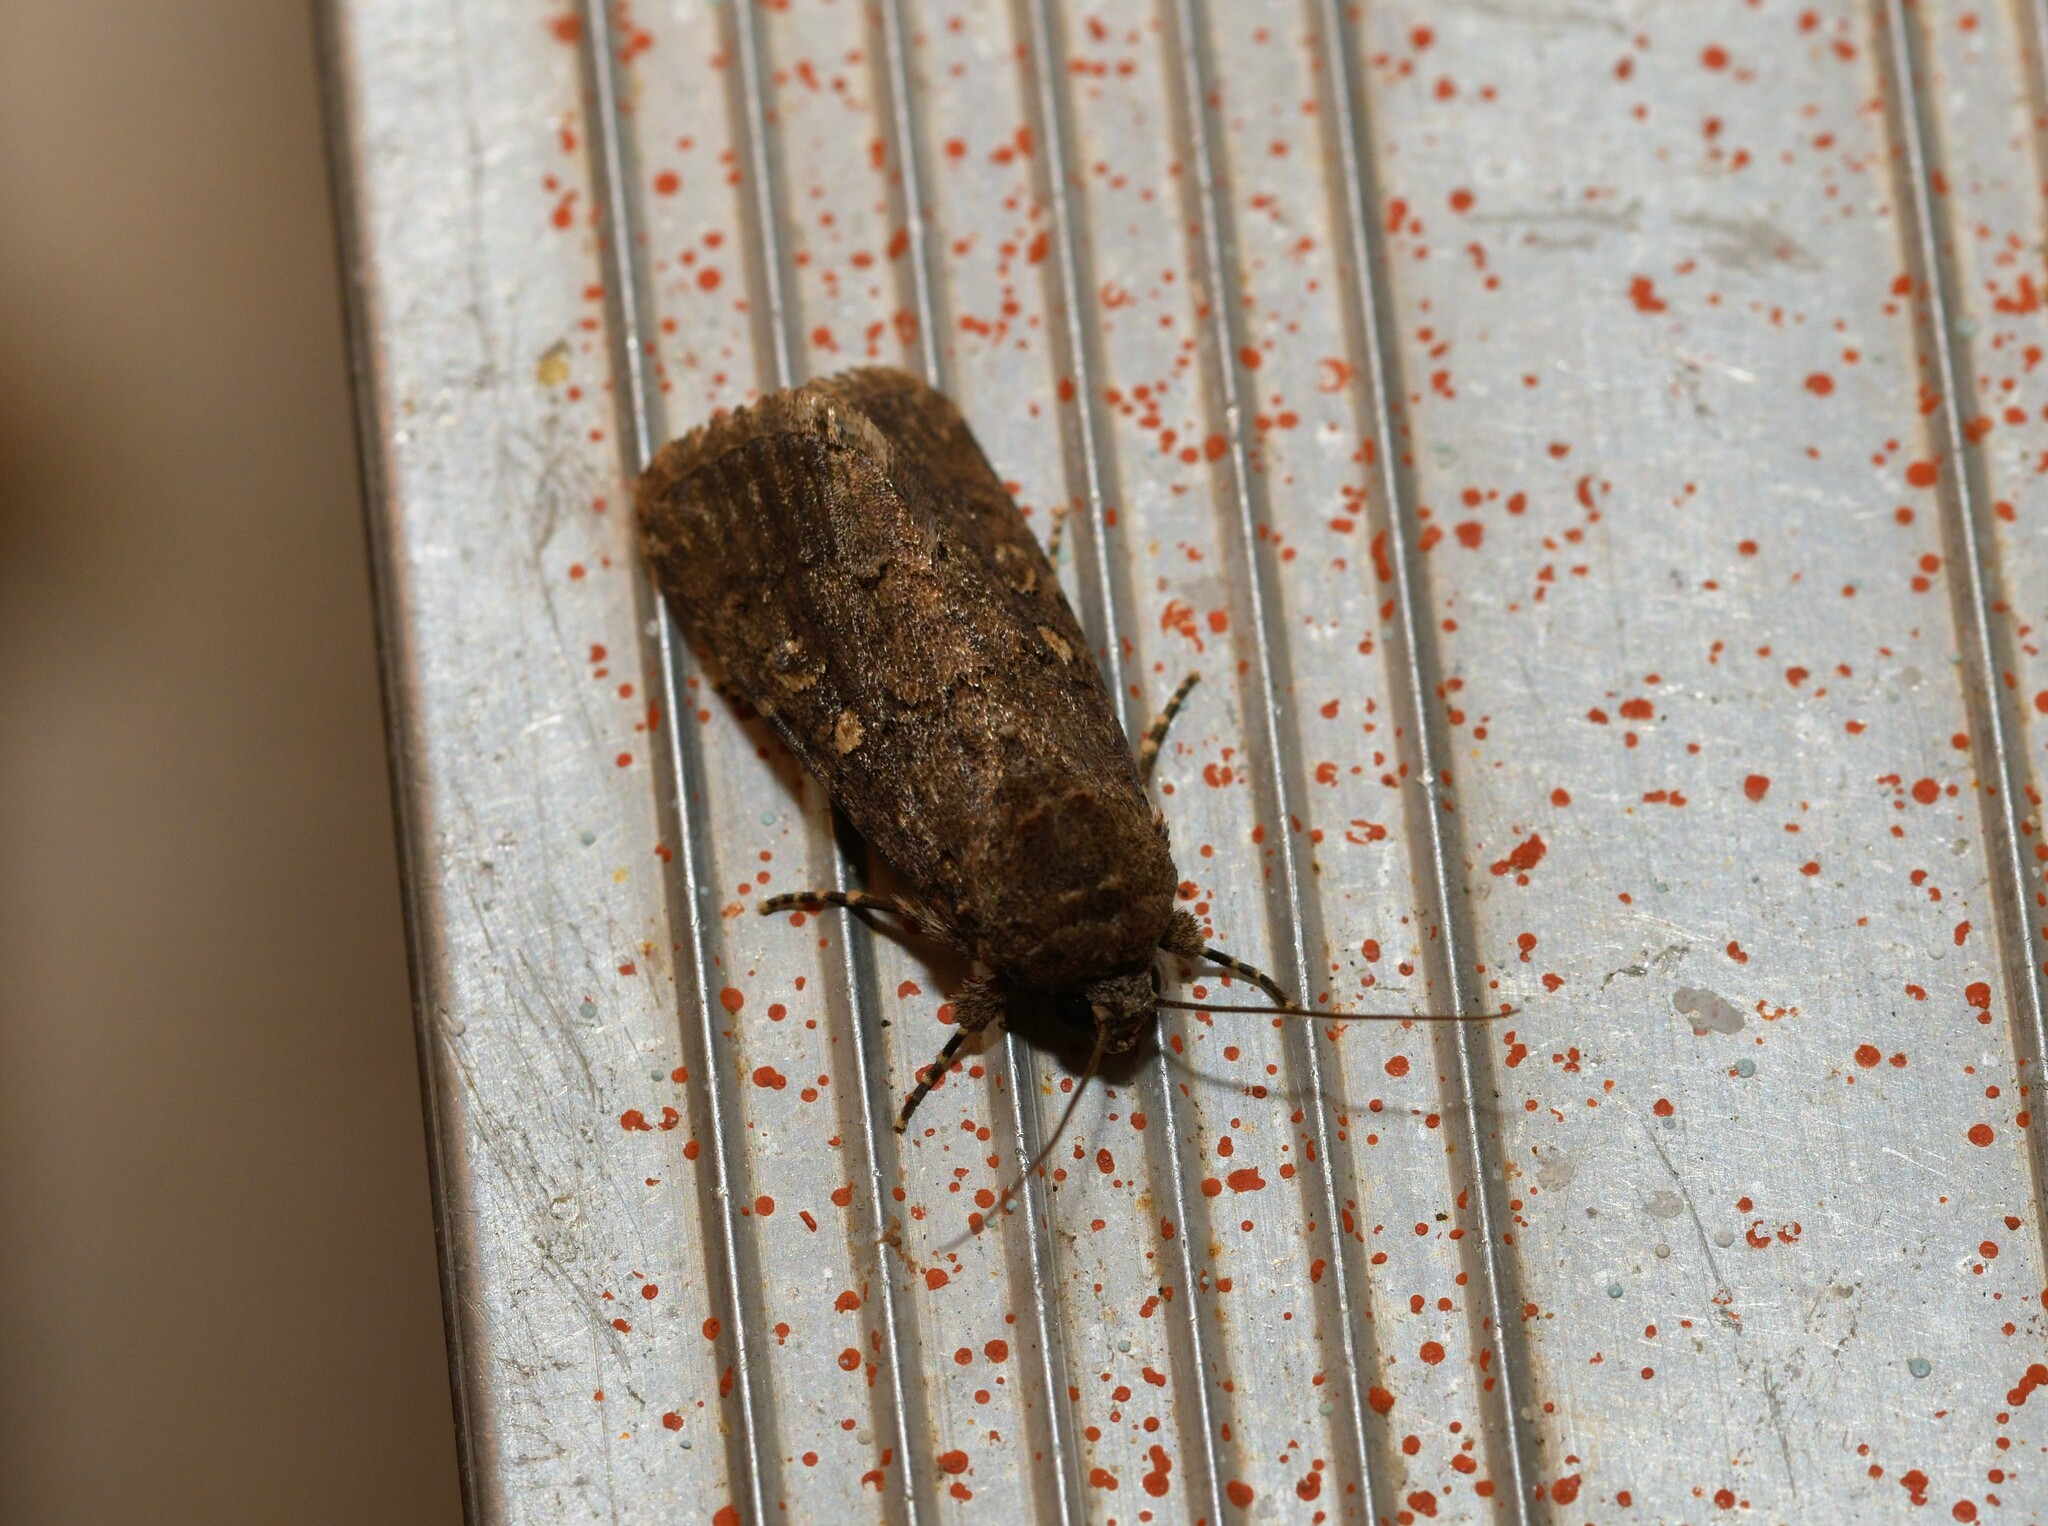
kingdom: Animalia
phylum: Arthropoda
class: Insecta
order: Lepidoptera
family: Noctuidae
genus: Spodoptera
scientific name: Spodoptera cilium
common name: Dark mottled willow
